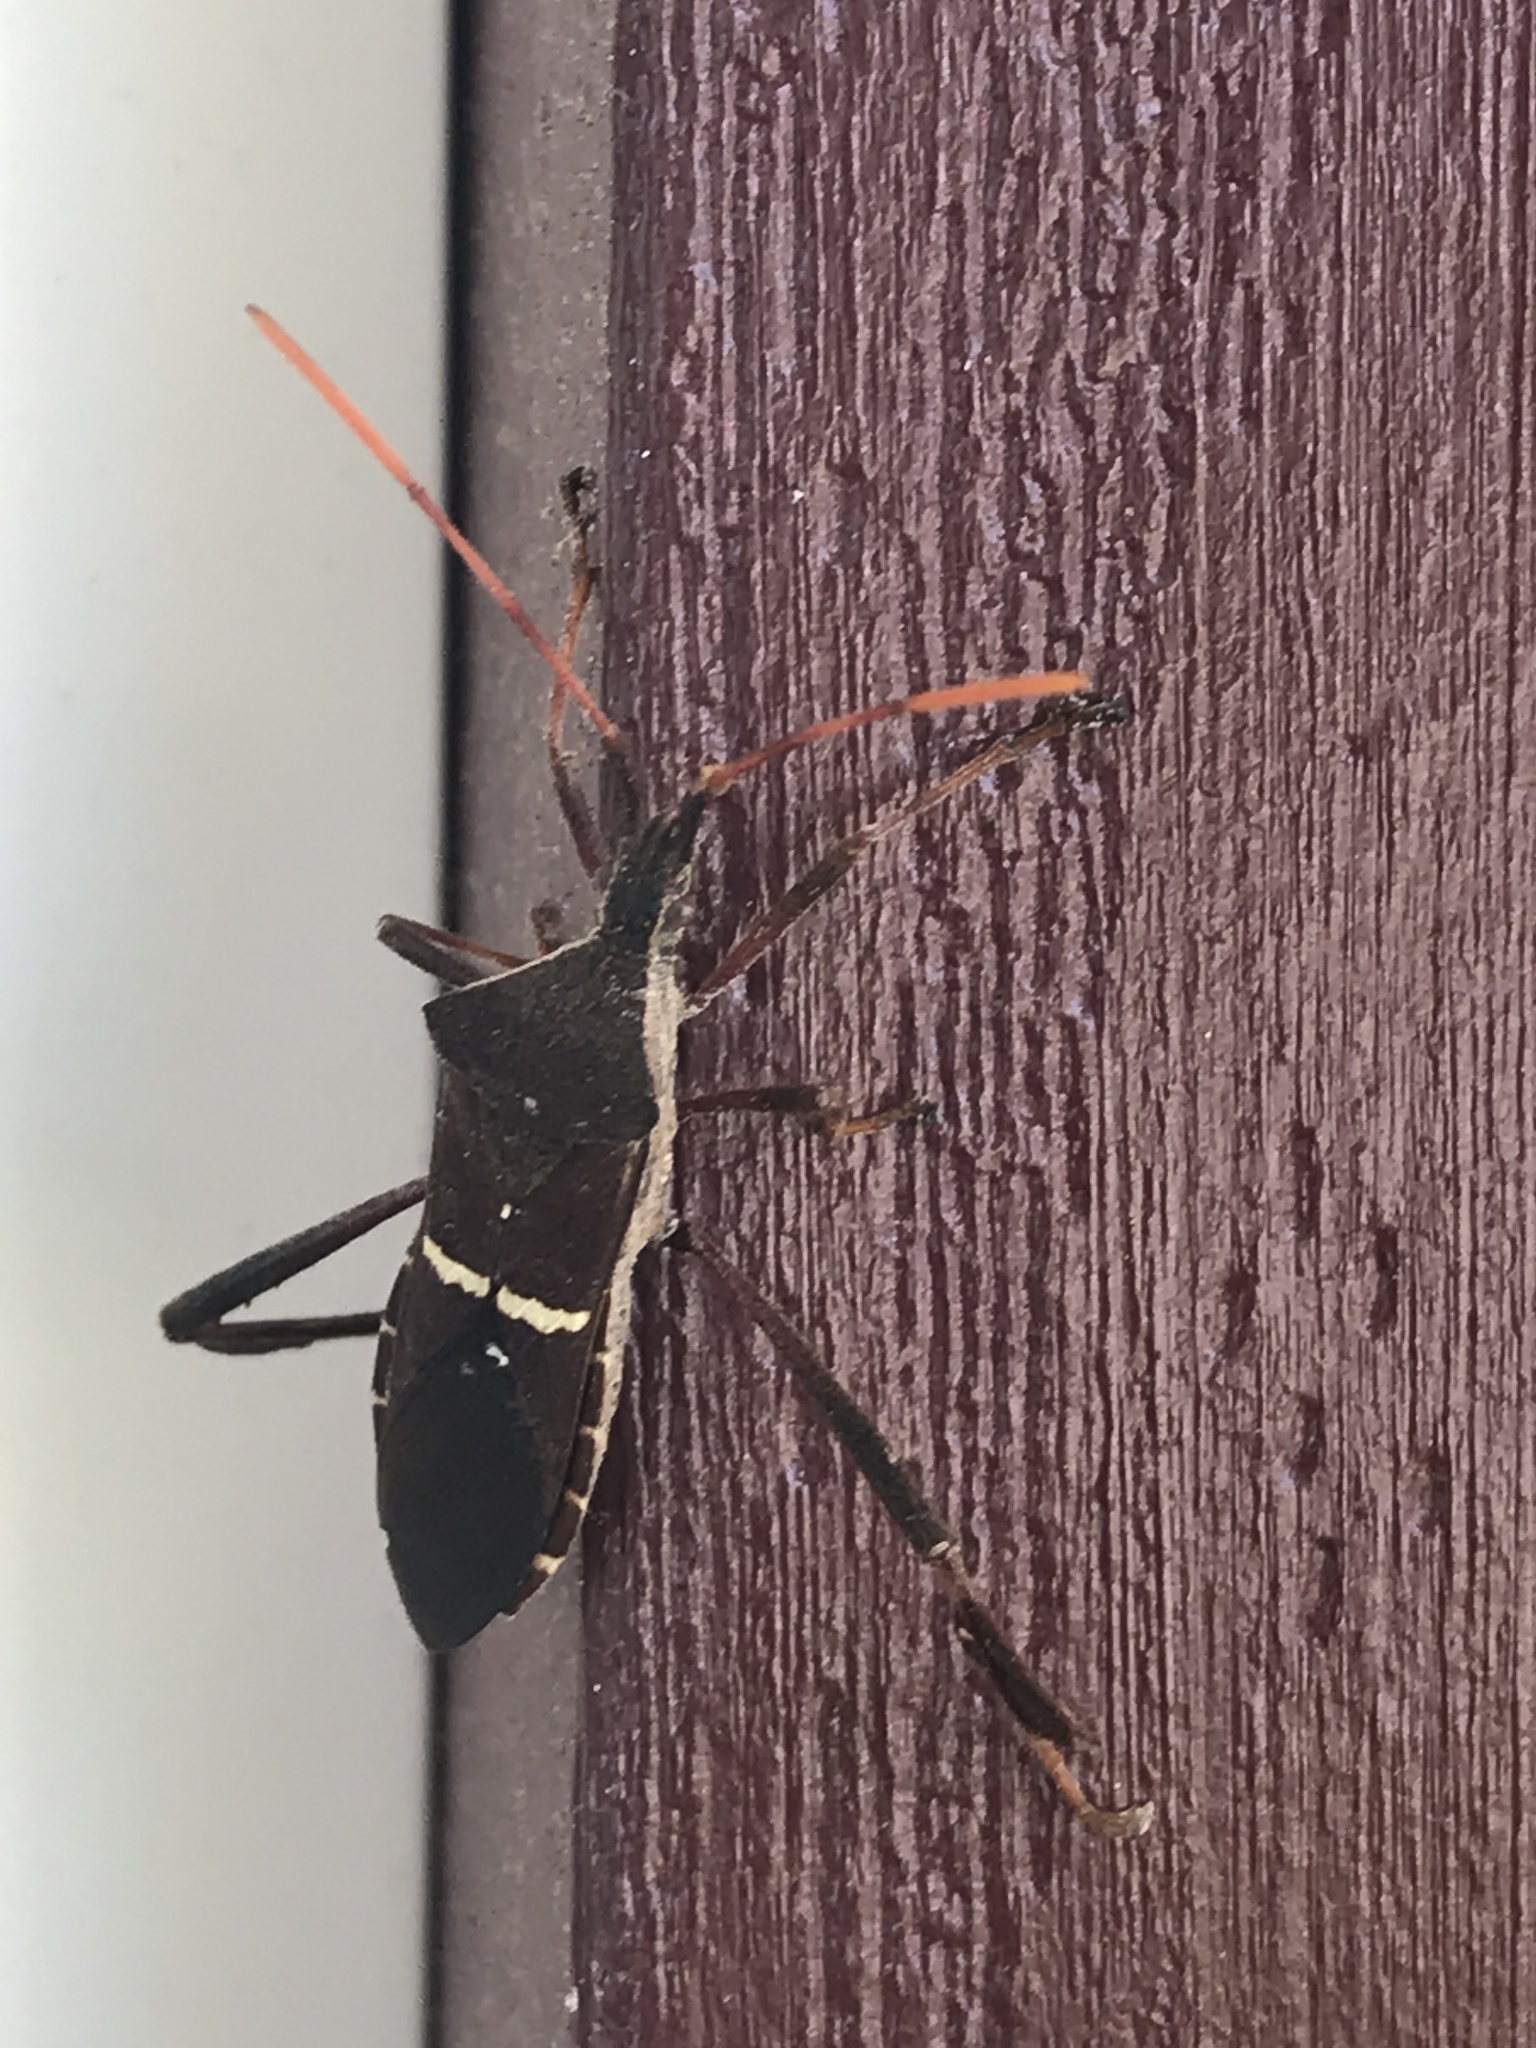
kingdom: Animalia
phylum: Arthropoda
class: Insecta
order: Hemiptera
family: Coreidae
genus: Leptoglossus
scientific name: Leptoglossus phyllopus
